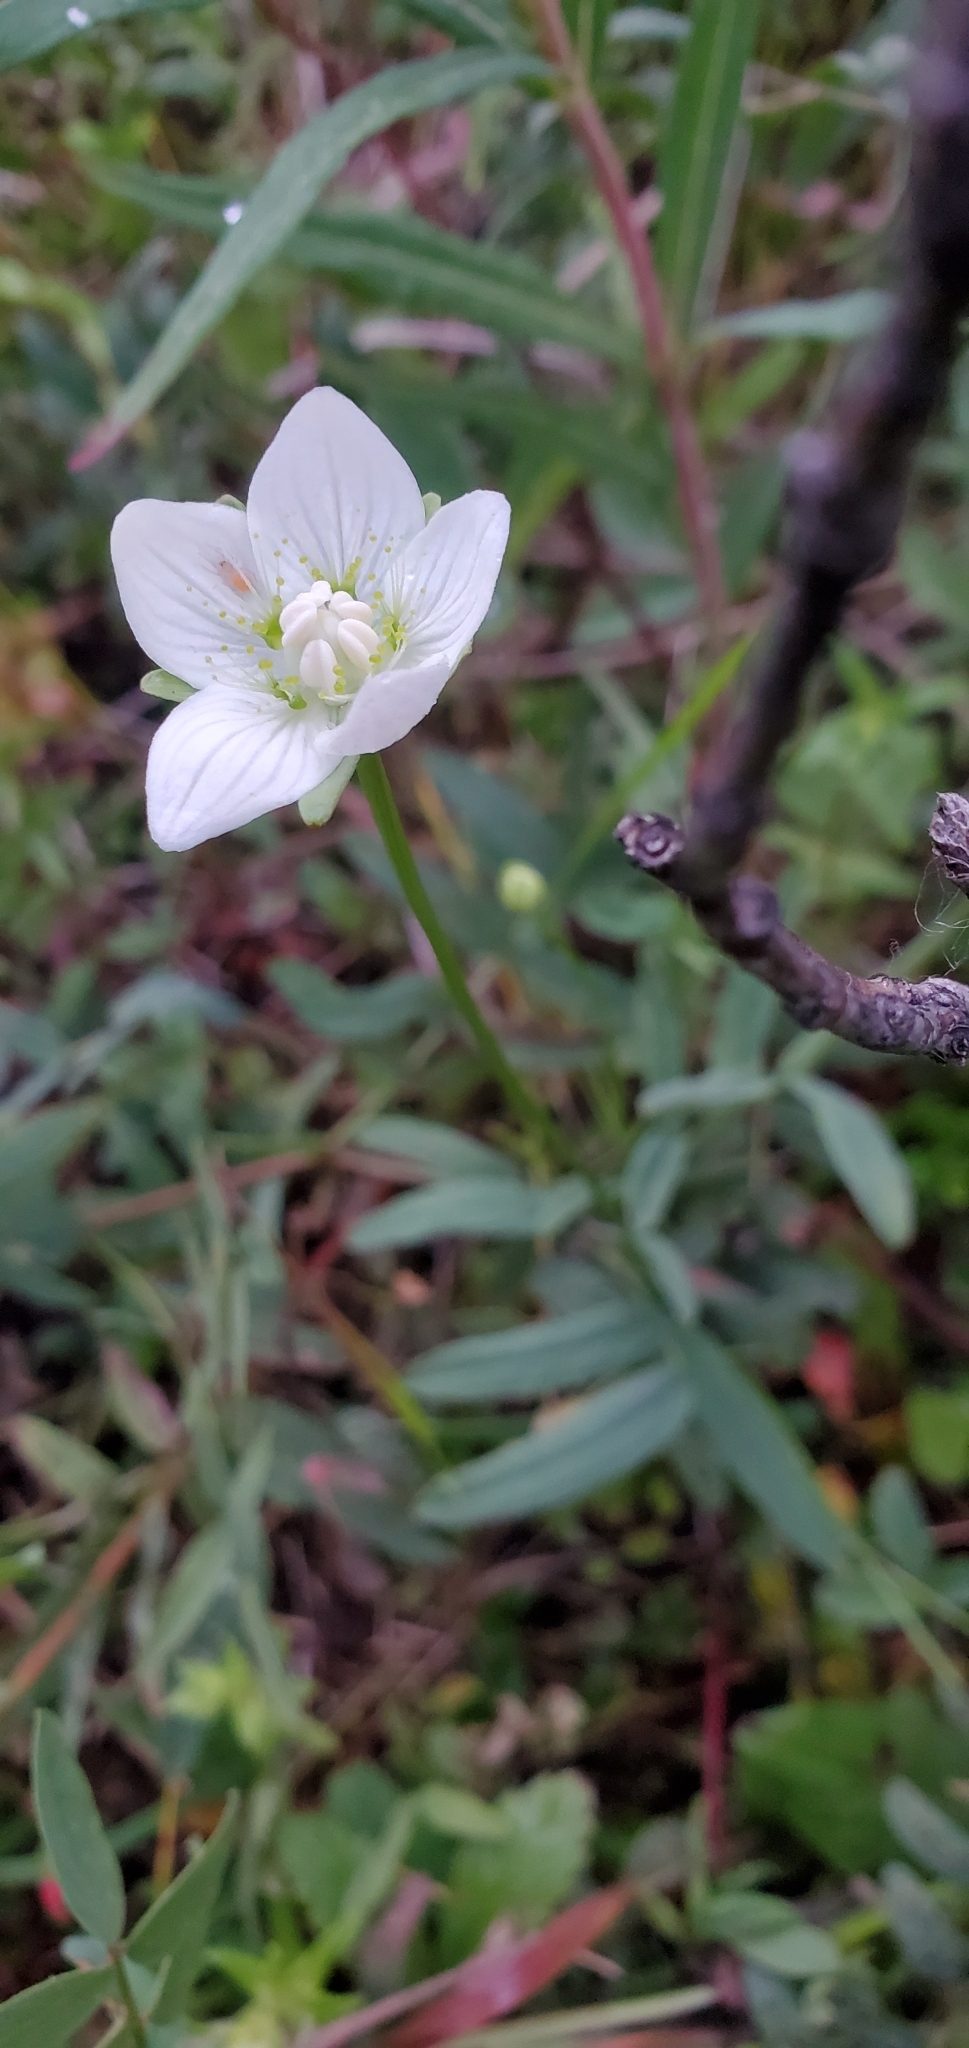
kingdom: Plantae
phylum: Tracheophyta
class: Magnoliopsida
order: Celastrales
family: Parnassiaceae
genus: Parnassia
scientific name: Parnassia palustris
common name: Grass-of-parnassus
